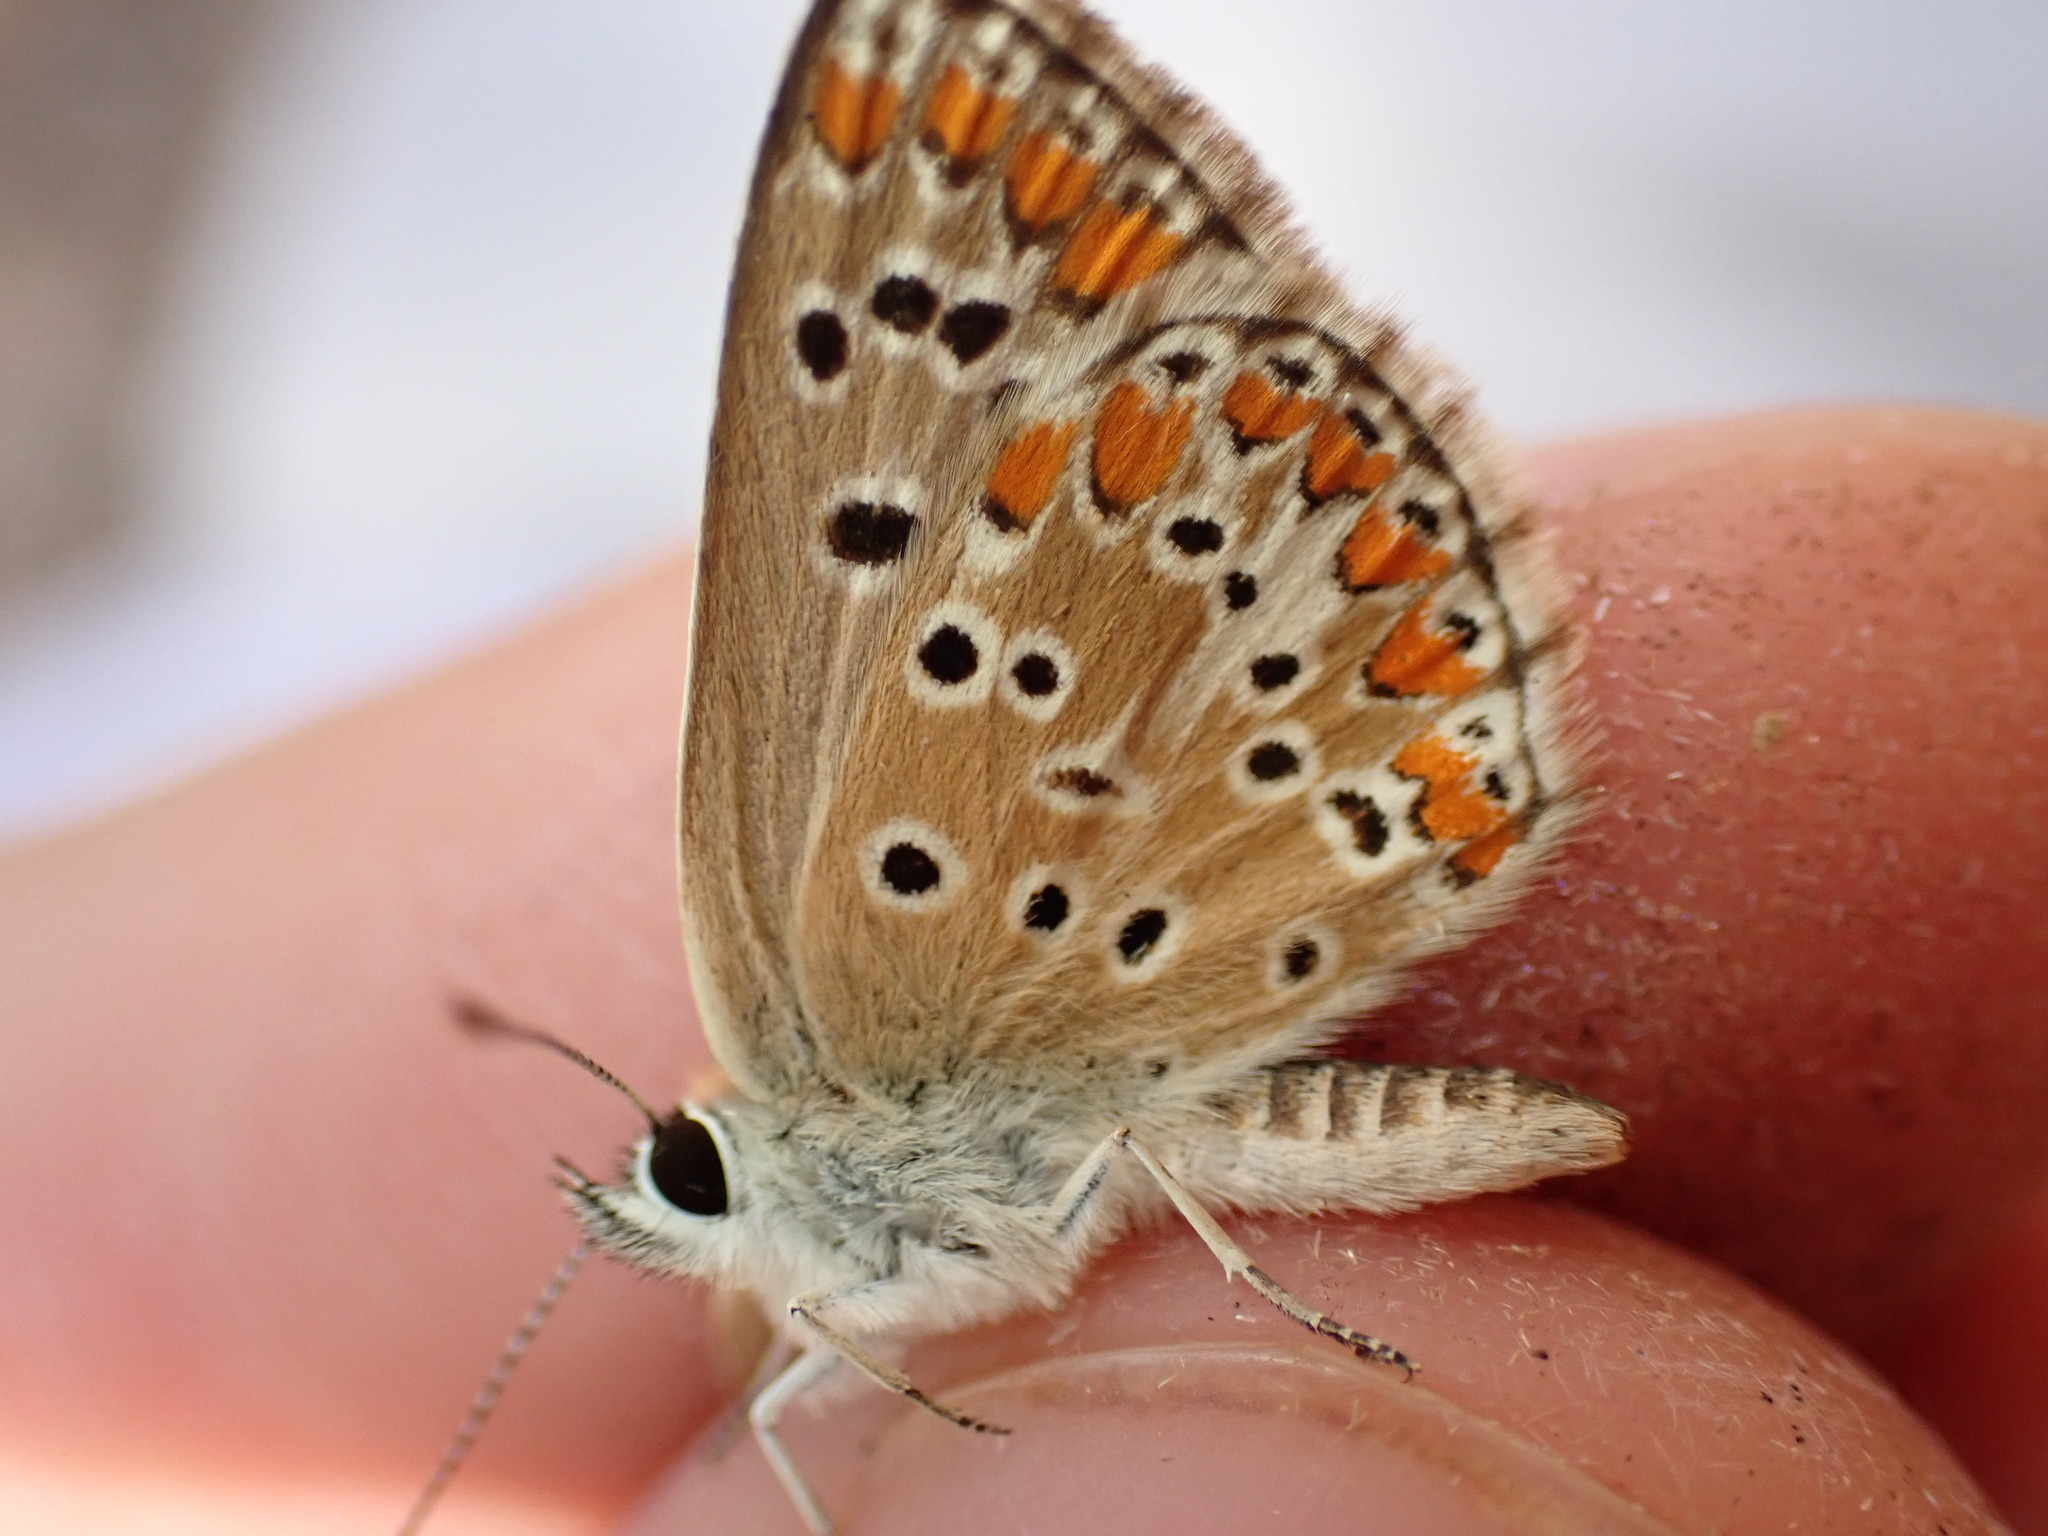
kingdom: Animalia
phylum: Arthropoda
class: Insecta
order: Lepidoptera
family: Lycaenidae
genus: Aricia
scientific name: Aricia agestis
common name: Brown argus
